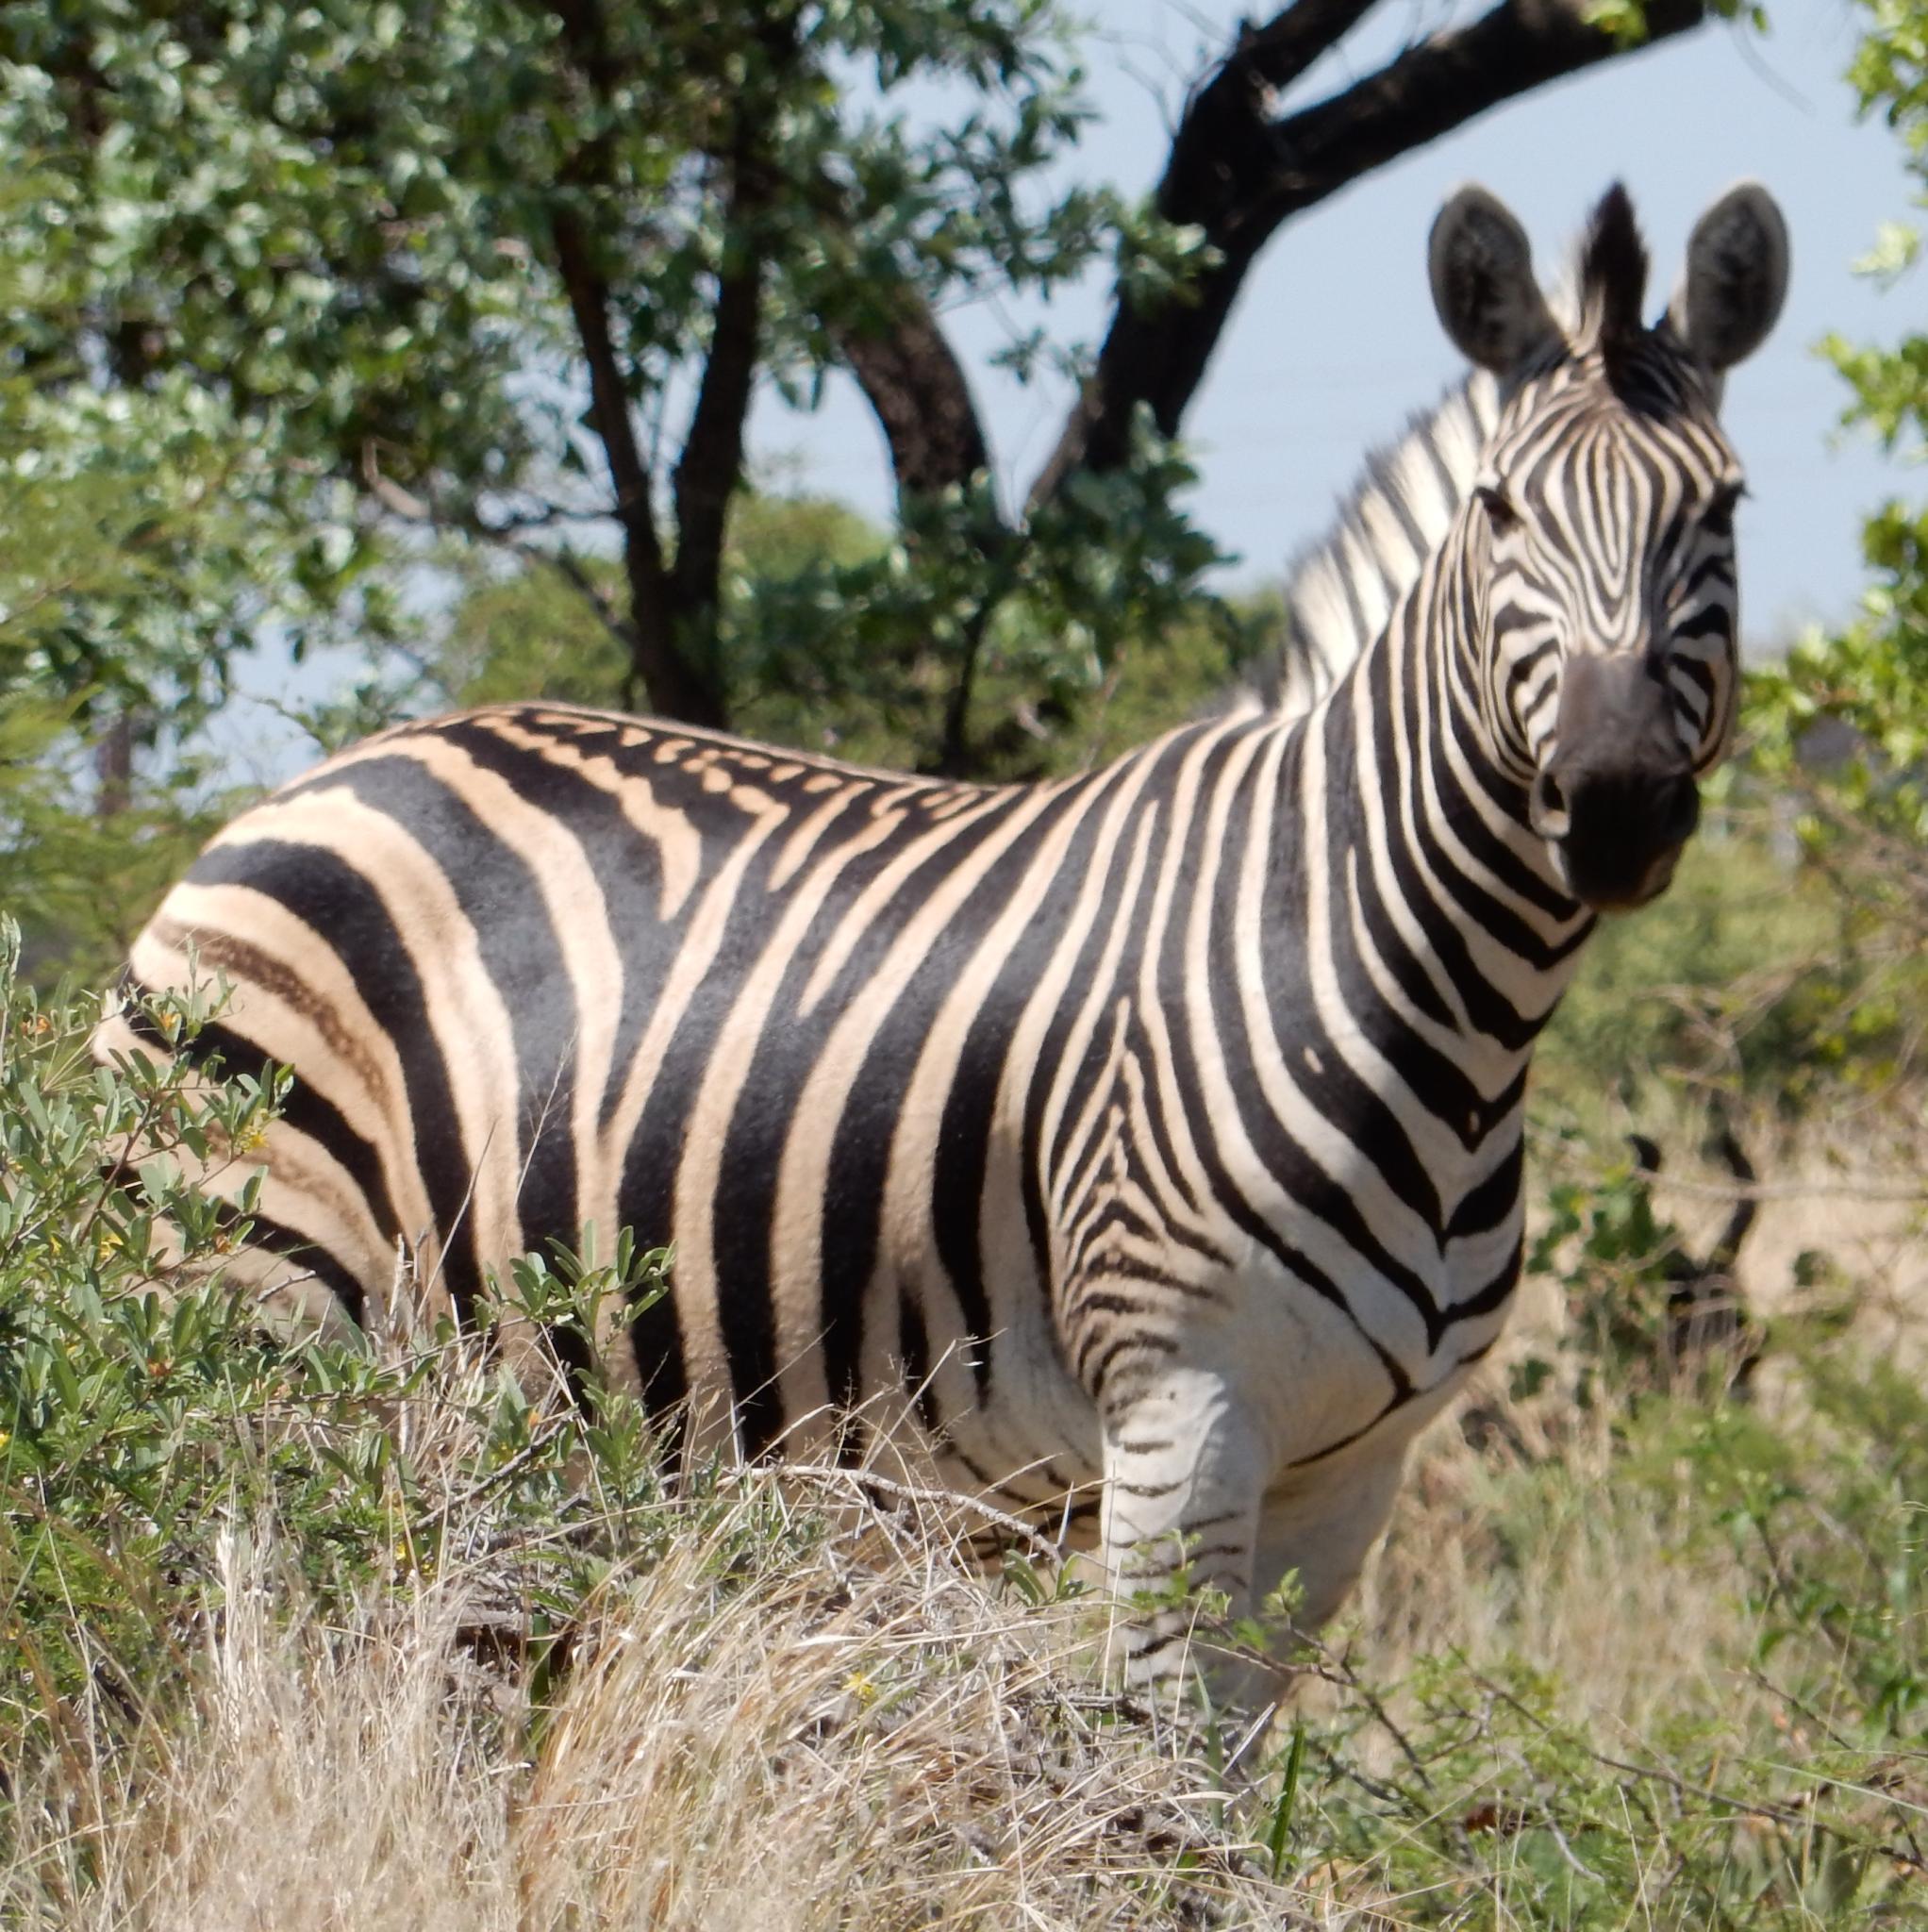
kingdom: Animalia
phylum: Chordata
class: Mammalia
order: Perissodactyla
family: Equidae
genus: Equus
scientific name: Equus quagga
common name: Plains zebra
